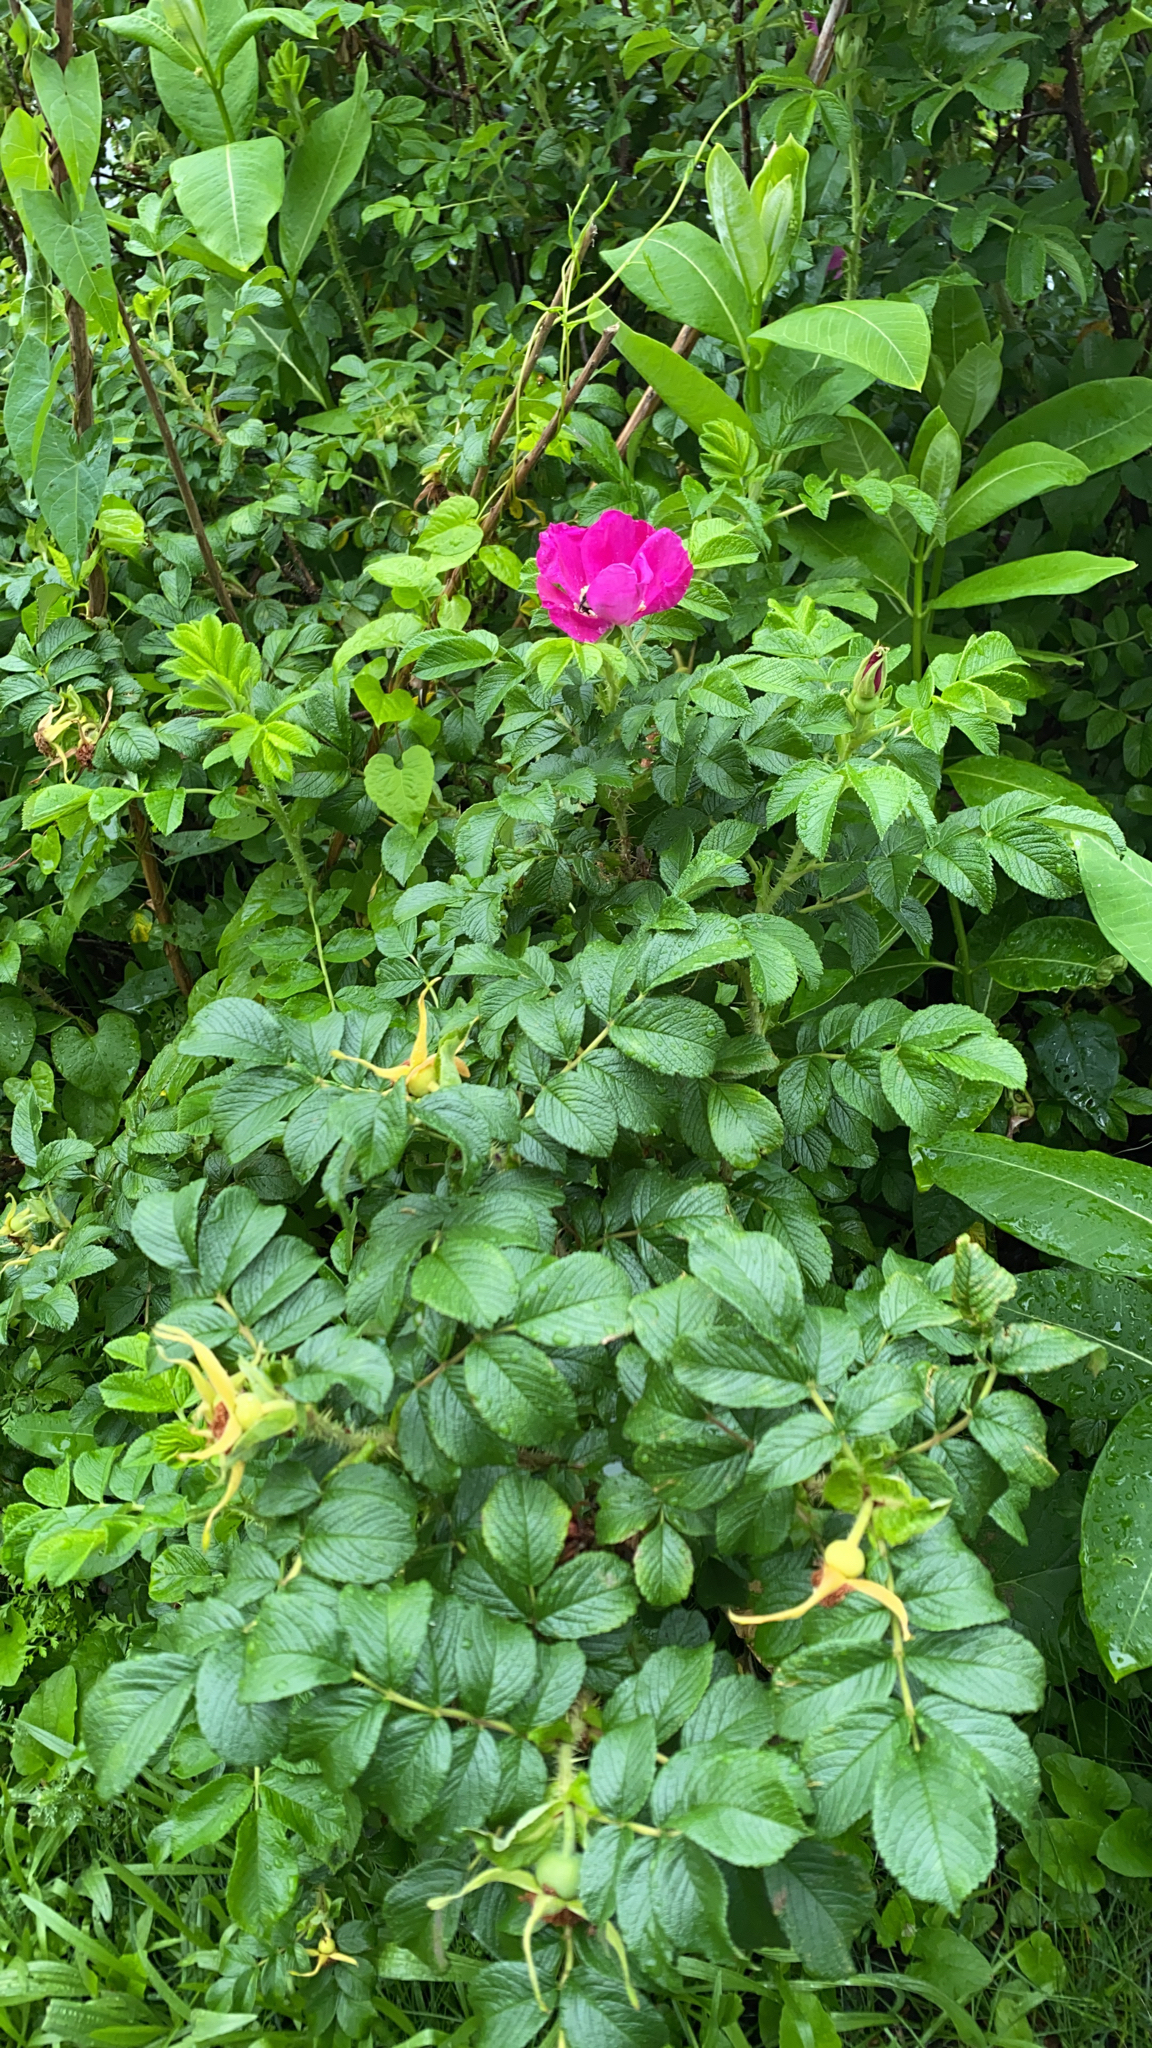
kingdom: Plantae
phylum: Tracheophyta
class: Magnoliopsida
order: Rosales
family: Rosaceae
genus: Rosa
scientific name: Rosa rugosa
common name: Japanese rose
